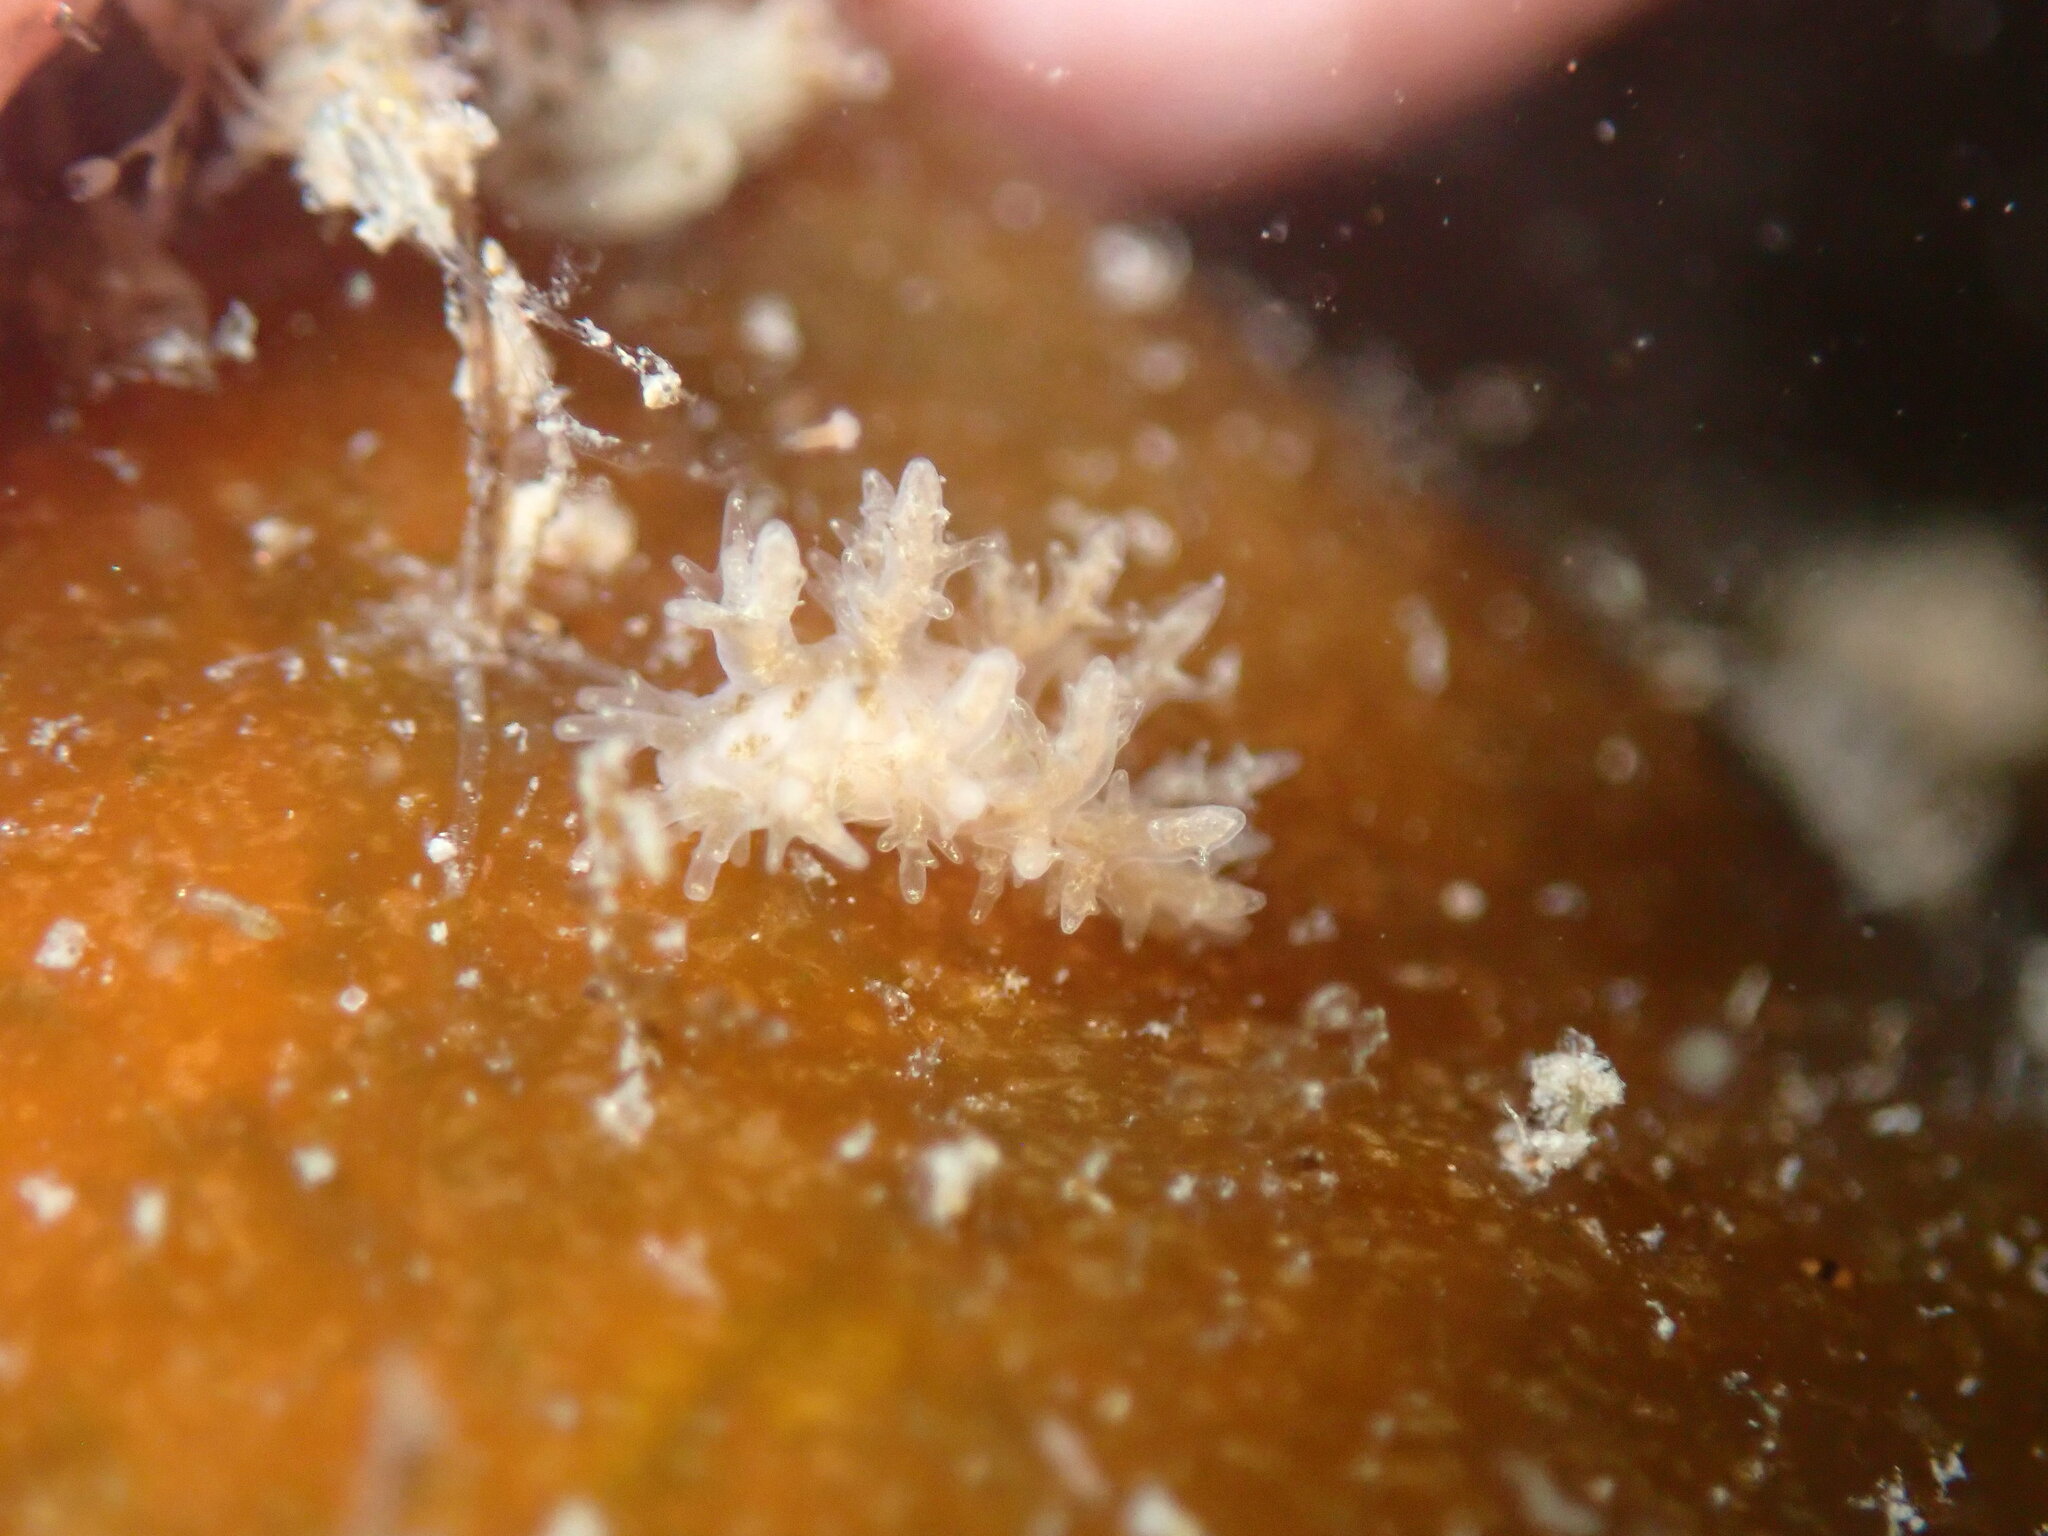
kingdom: Animalia
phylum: Mollusca
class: Gastropoda
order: Nudibranchia
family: Dendronotidae
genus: Dendronotus
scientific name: Dendronotus venustus
